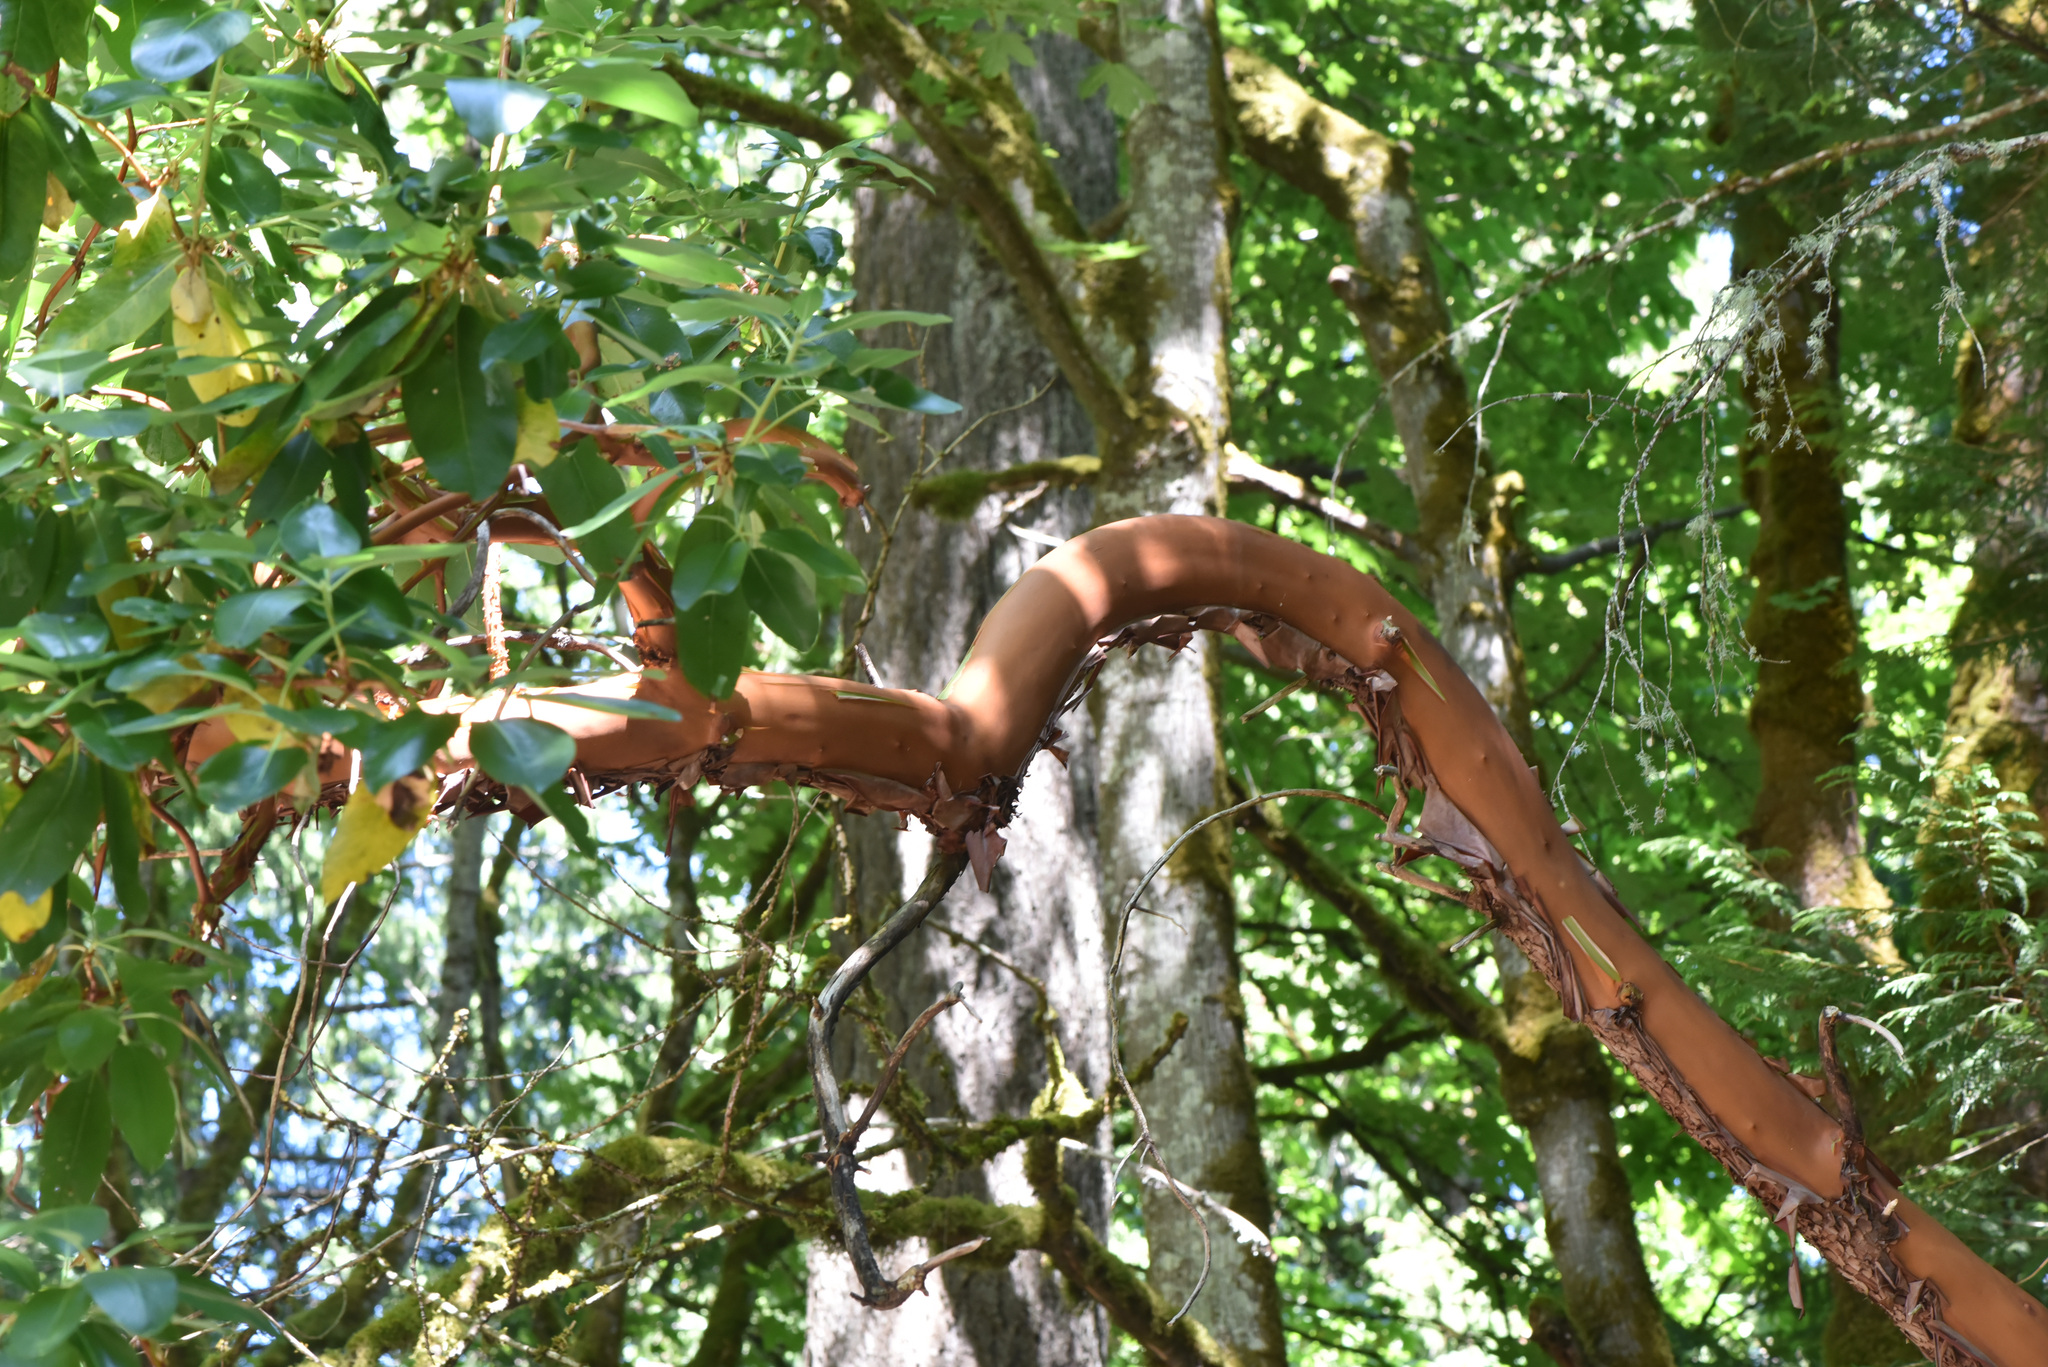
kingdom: Plantae
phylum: Tracheophyta
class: Magnoliopsida
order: Ericales
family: Ericaceae
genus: Arbutus
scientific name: Arbutus menziesii
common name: Pacific madrone
